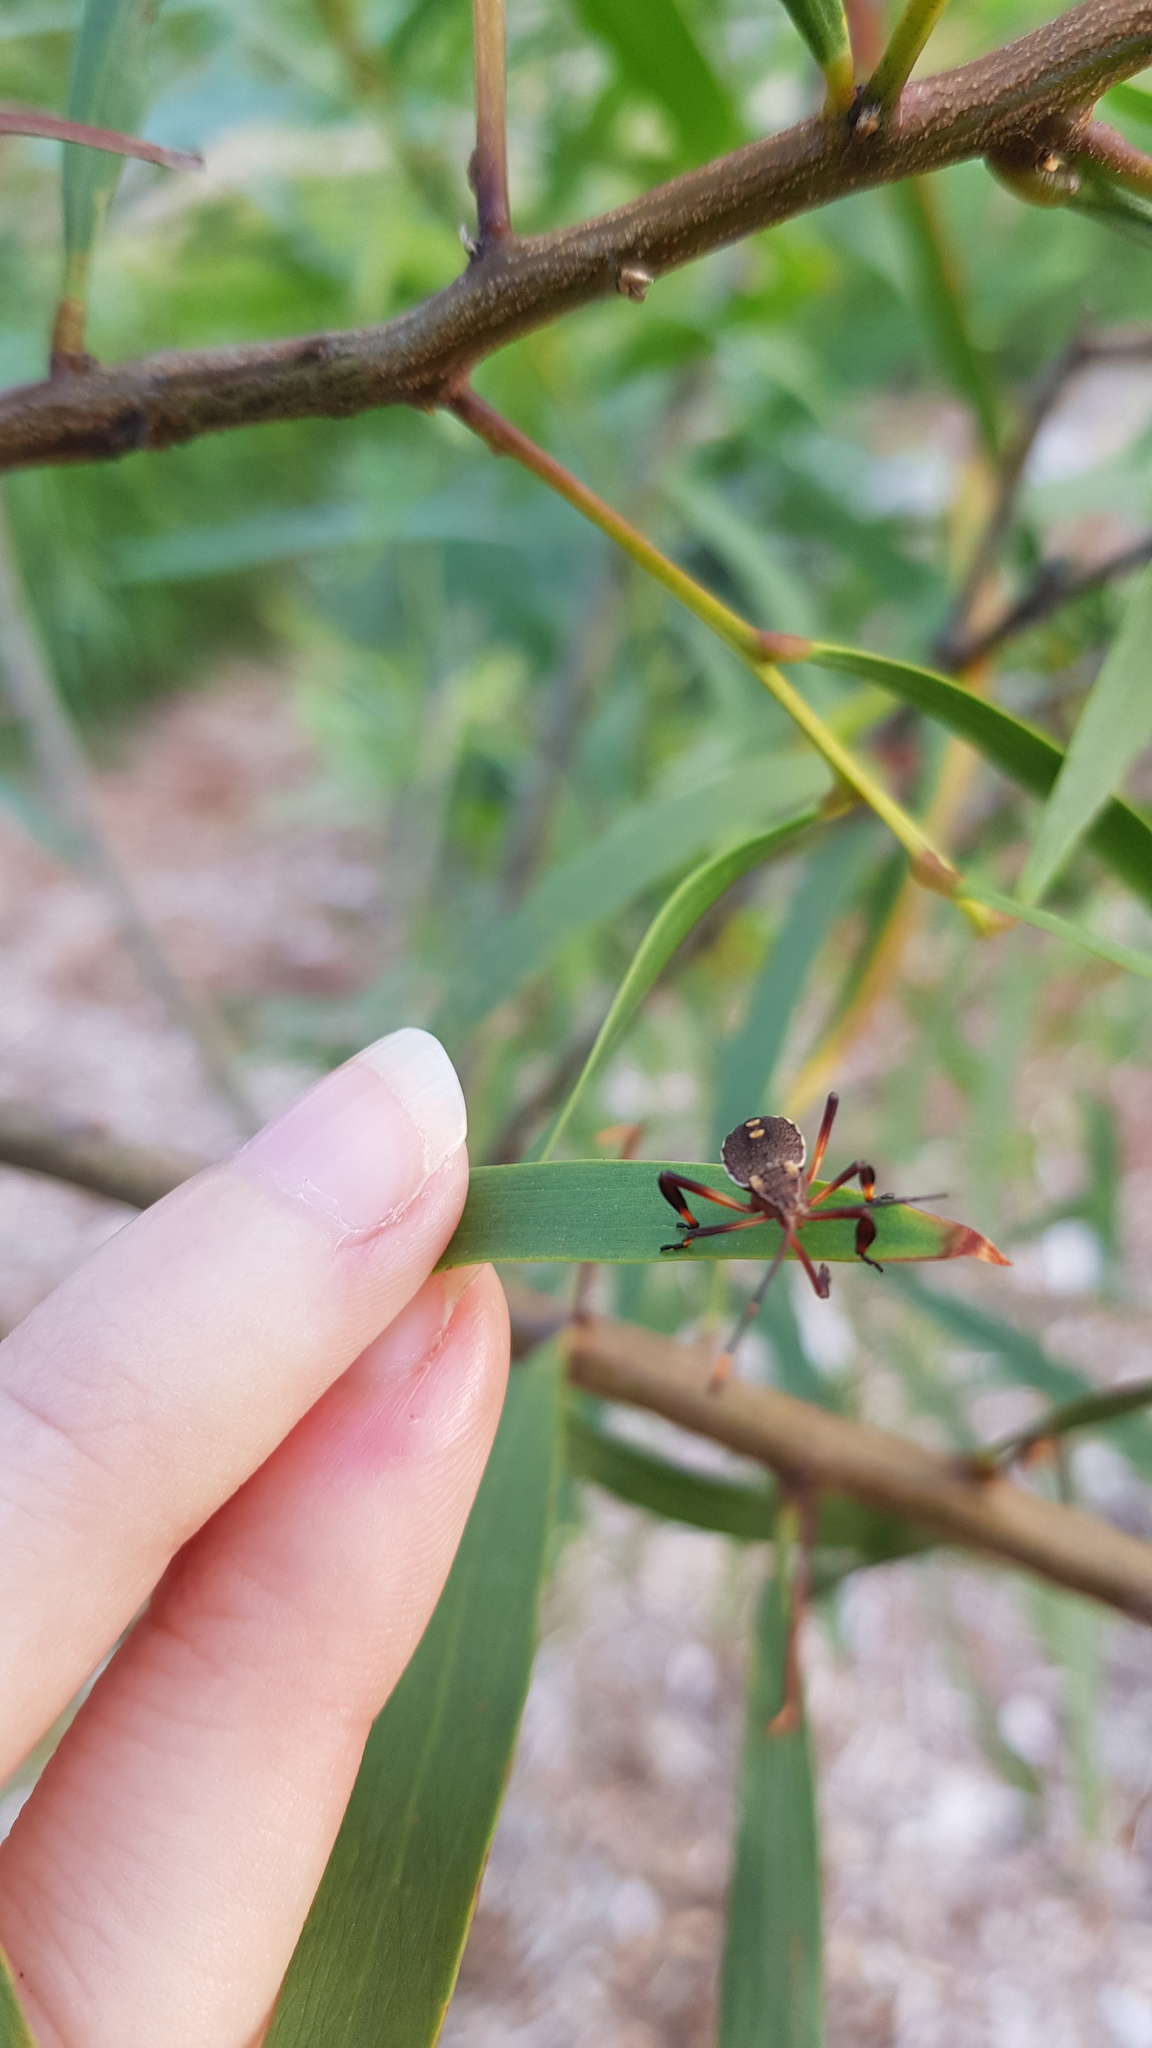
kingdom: Animalia
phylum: Arthropoda
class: Insecta
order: Hemiptera
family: Coreidae
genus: Mictis
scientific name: Mictis profana
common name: Crusader bug
